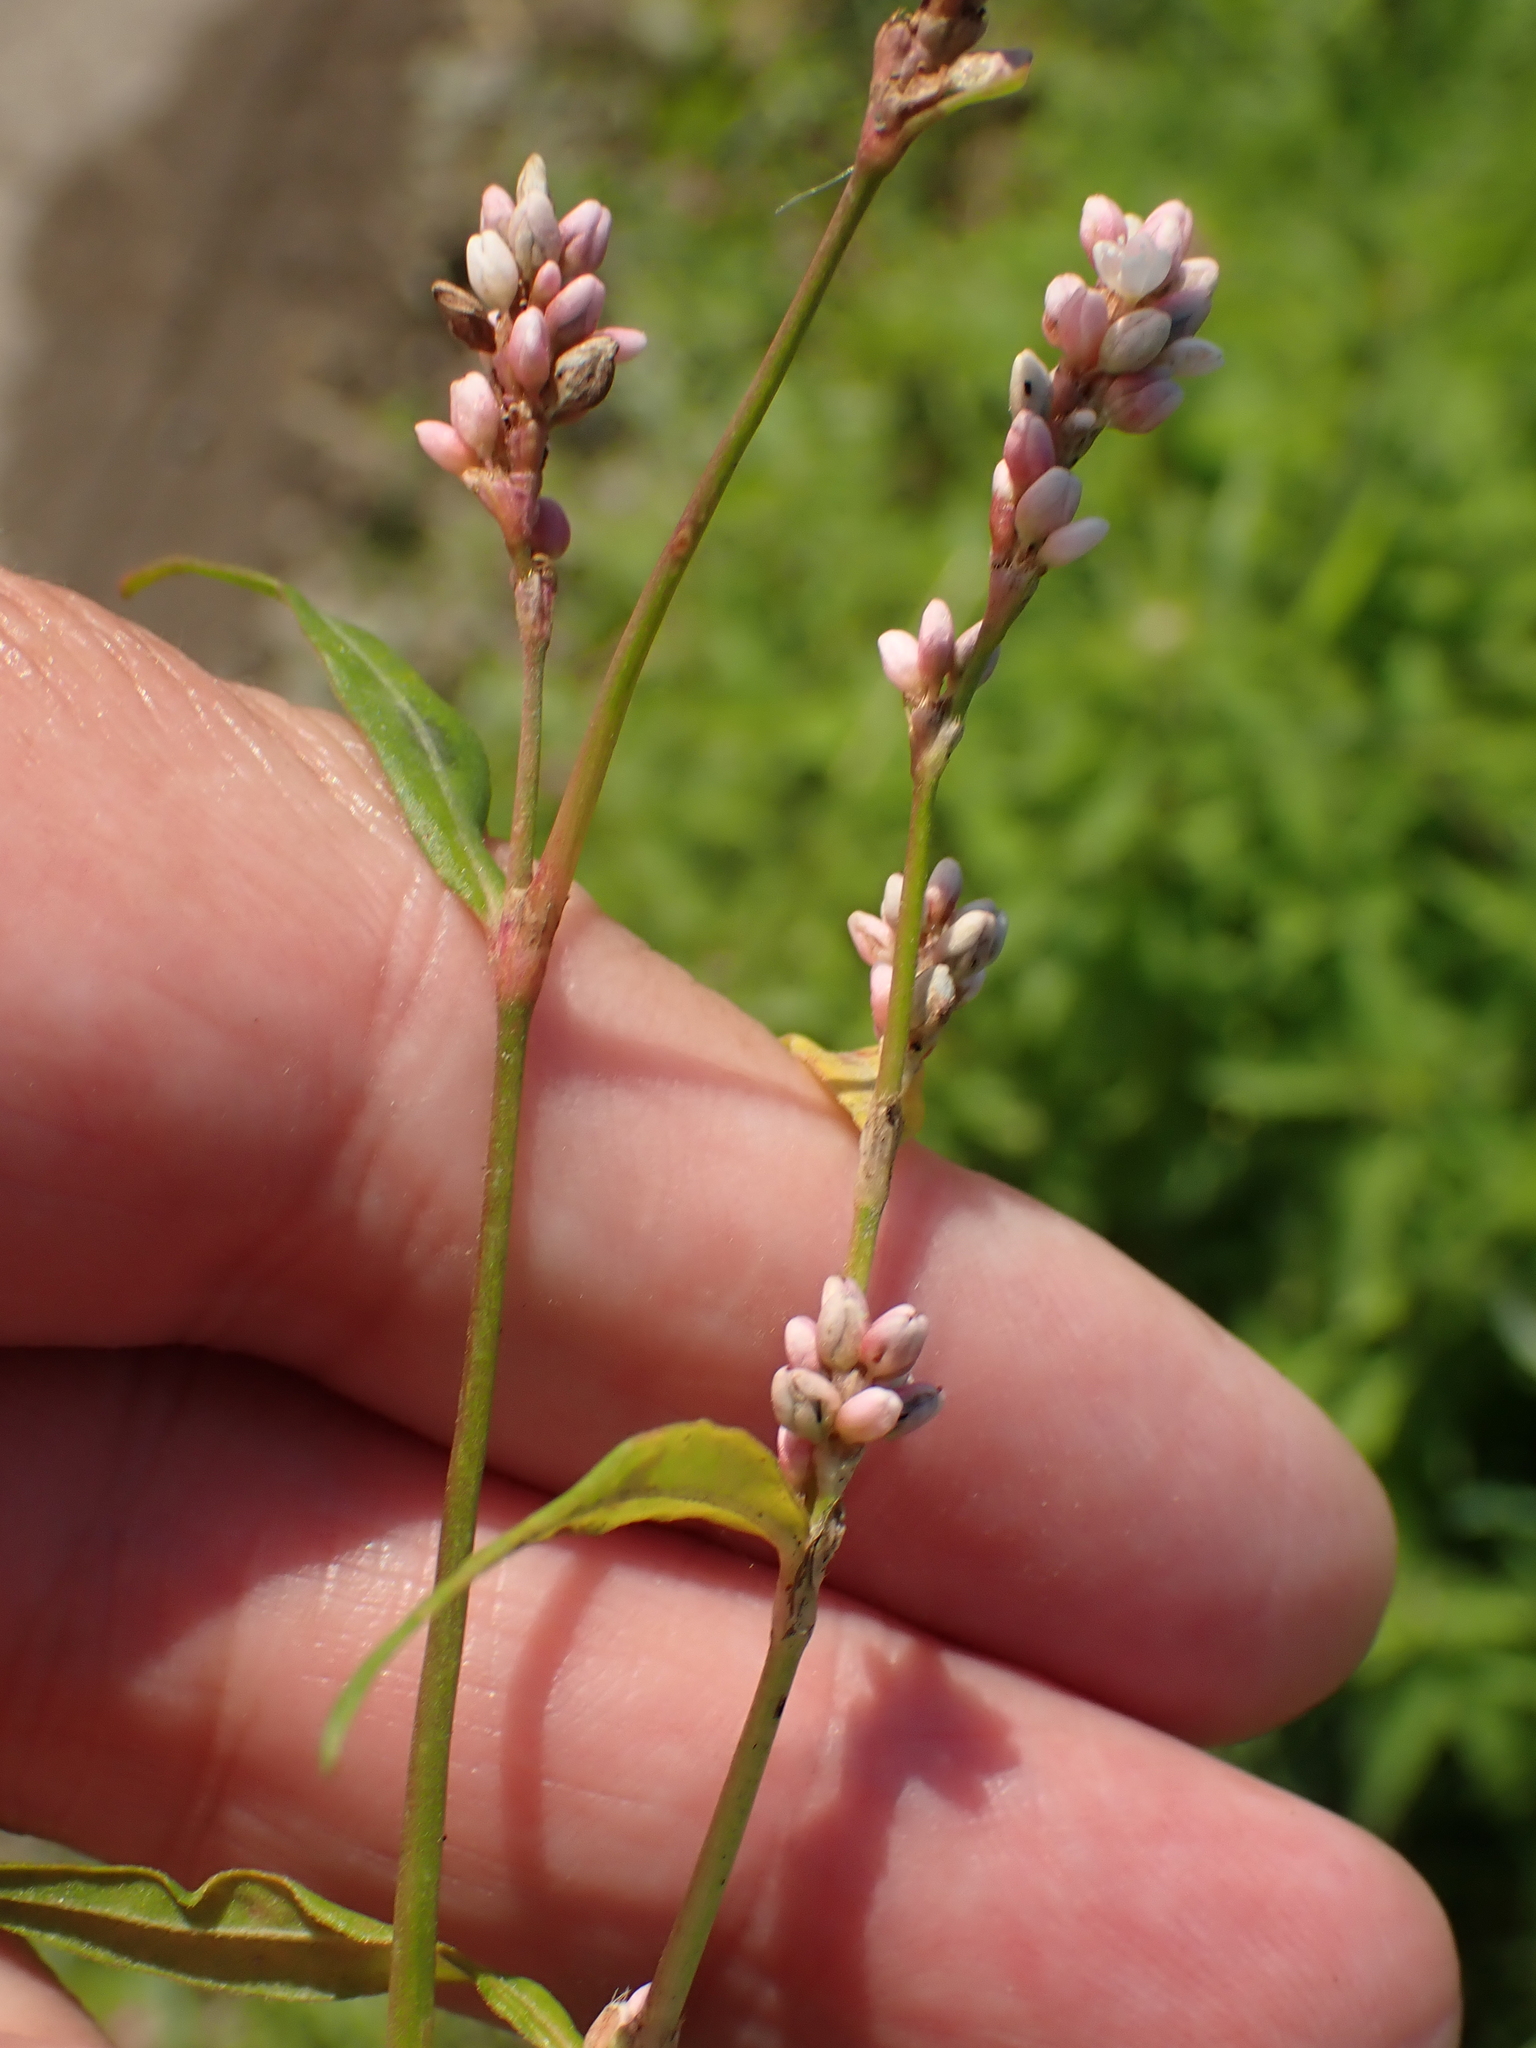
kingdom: Plantae
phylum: Tracheophyta
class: Magnoliopsida
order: Caryophyllales
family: Polygonaceae
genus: Persicaria
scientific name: Persicaria maculosa
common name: Redshank
